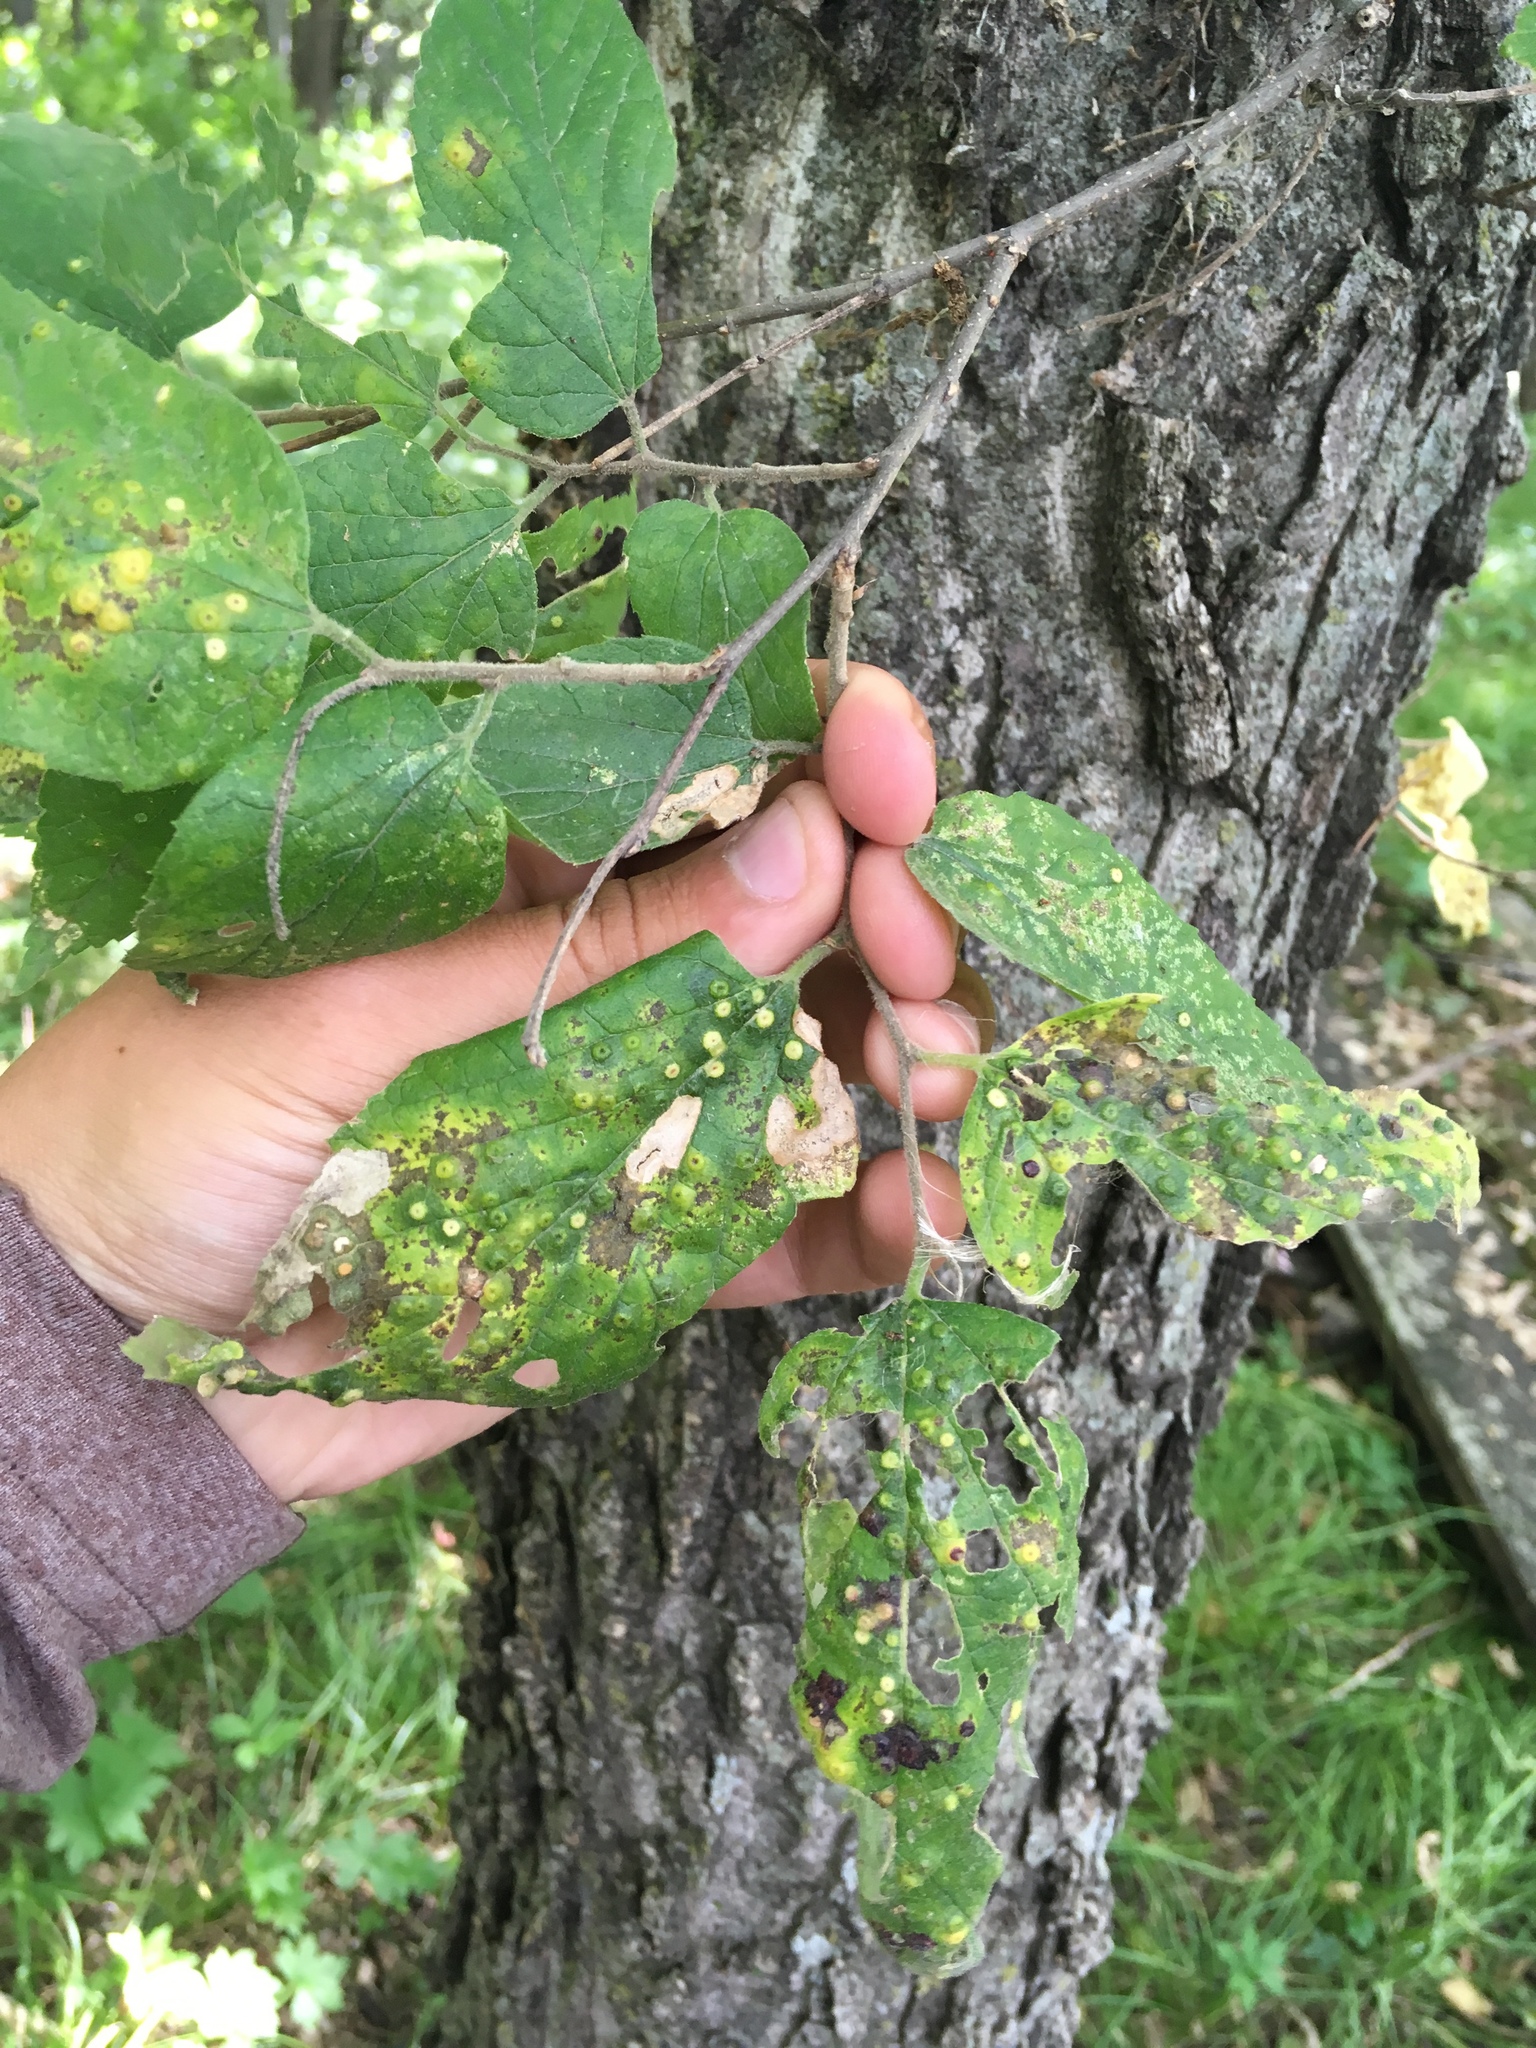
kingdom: Plantae
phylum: Tracheophyta
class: Magnoliopsida
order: Rosales
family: Cannabaceae
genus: Celtis
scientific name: Celtis occidentalis
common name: Common hackberry
